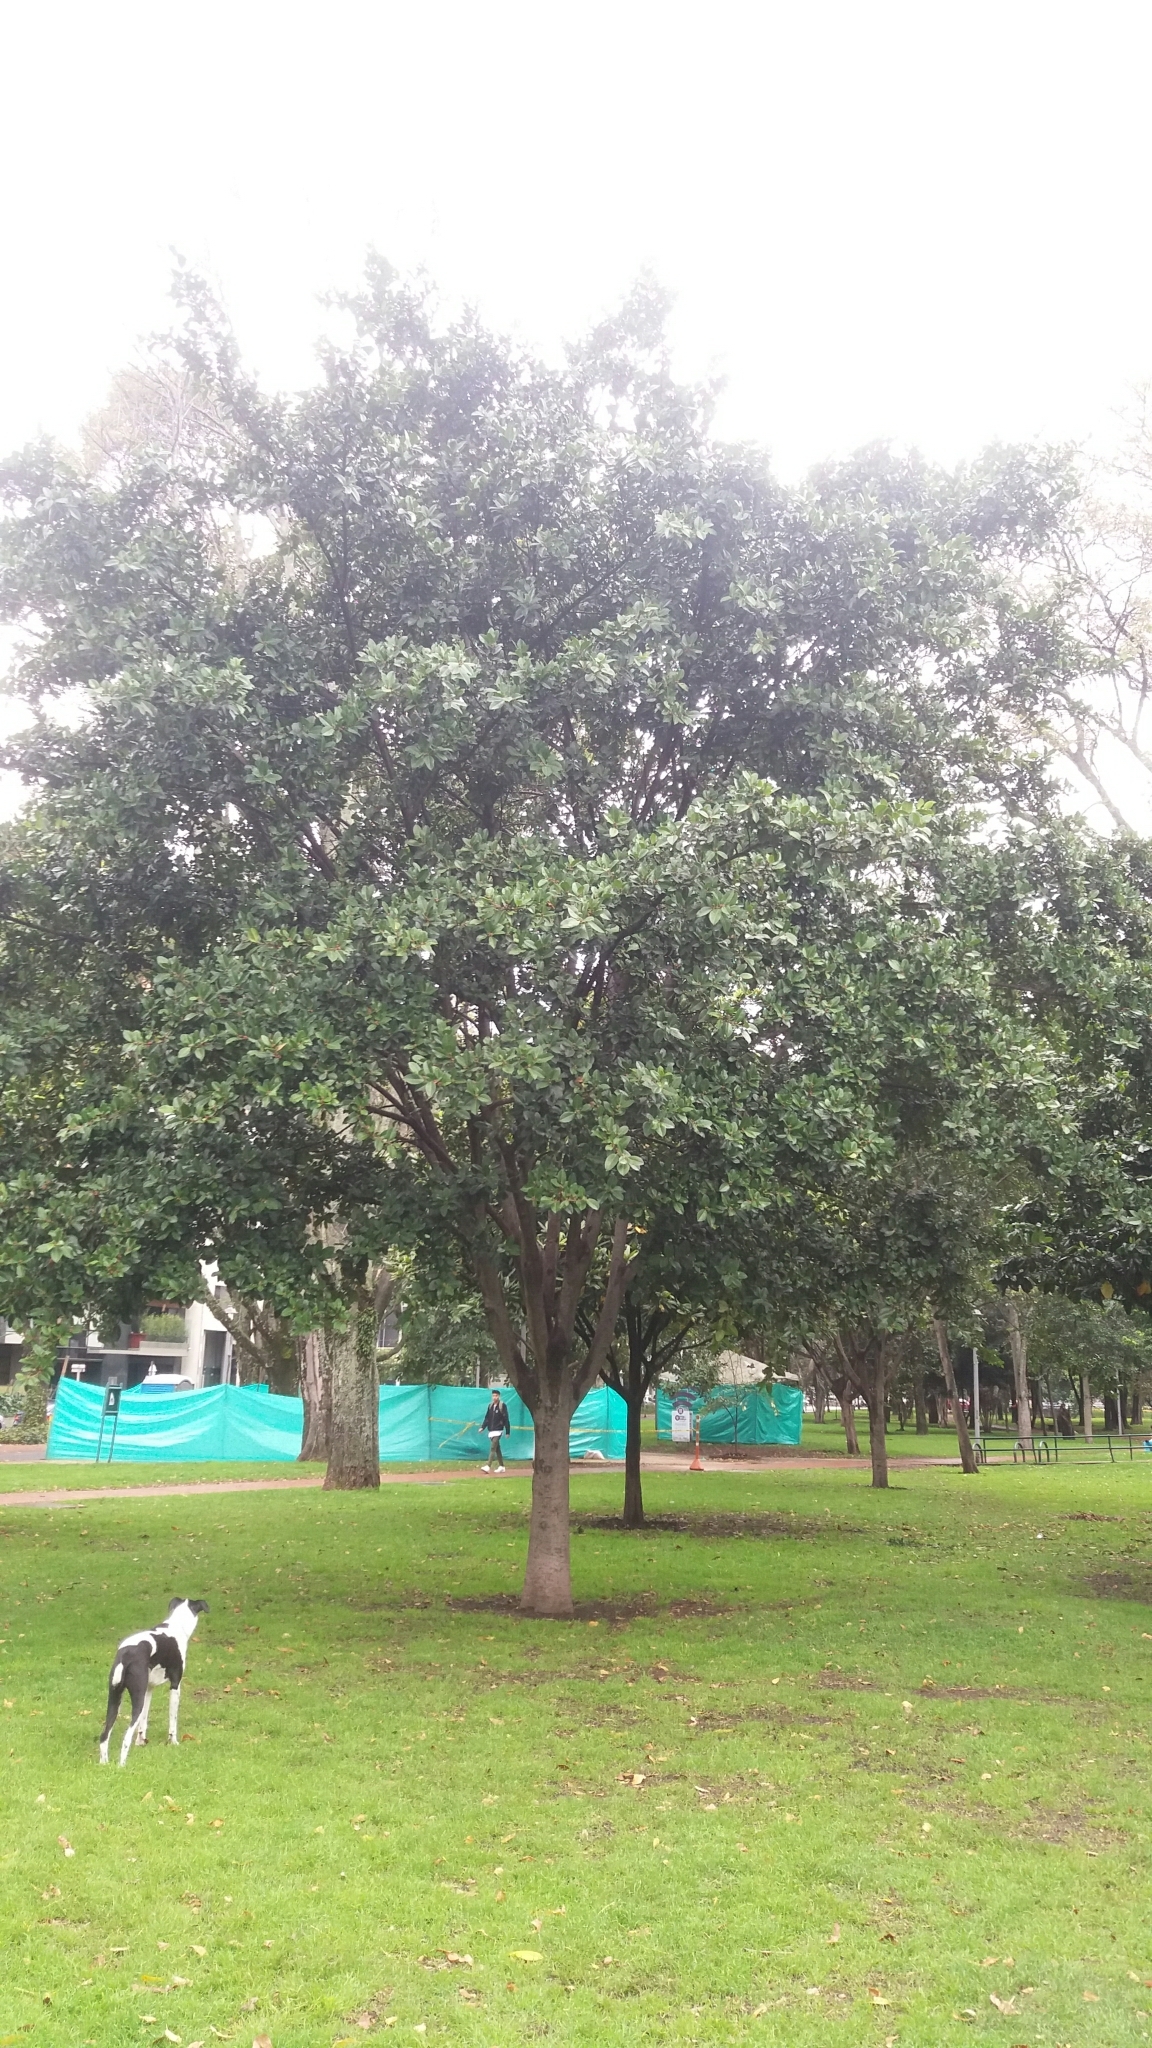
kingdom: Plantae
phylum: Tracheophyta
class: Magnoliopsida
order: Rosales
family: Moraceae
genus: Ficus
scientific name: Ficus americana
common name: Jamaican cherry fig
